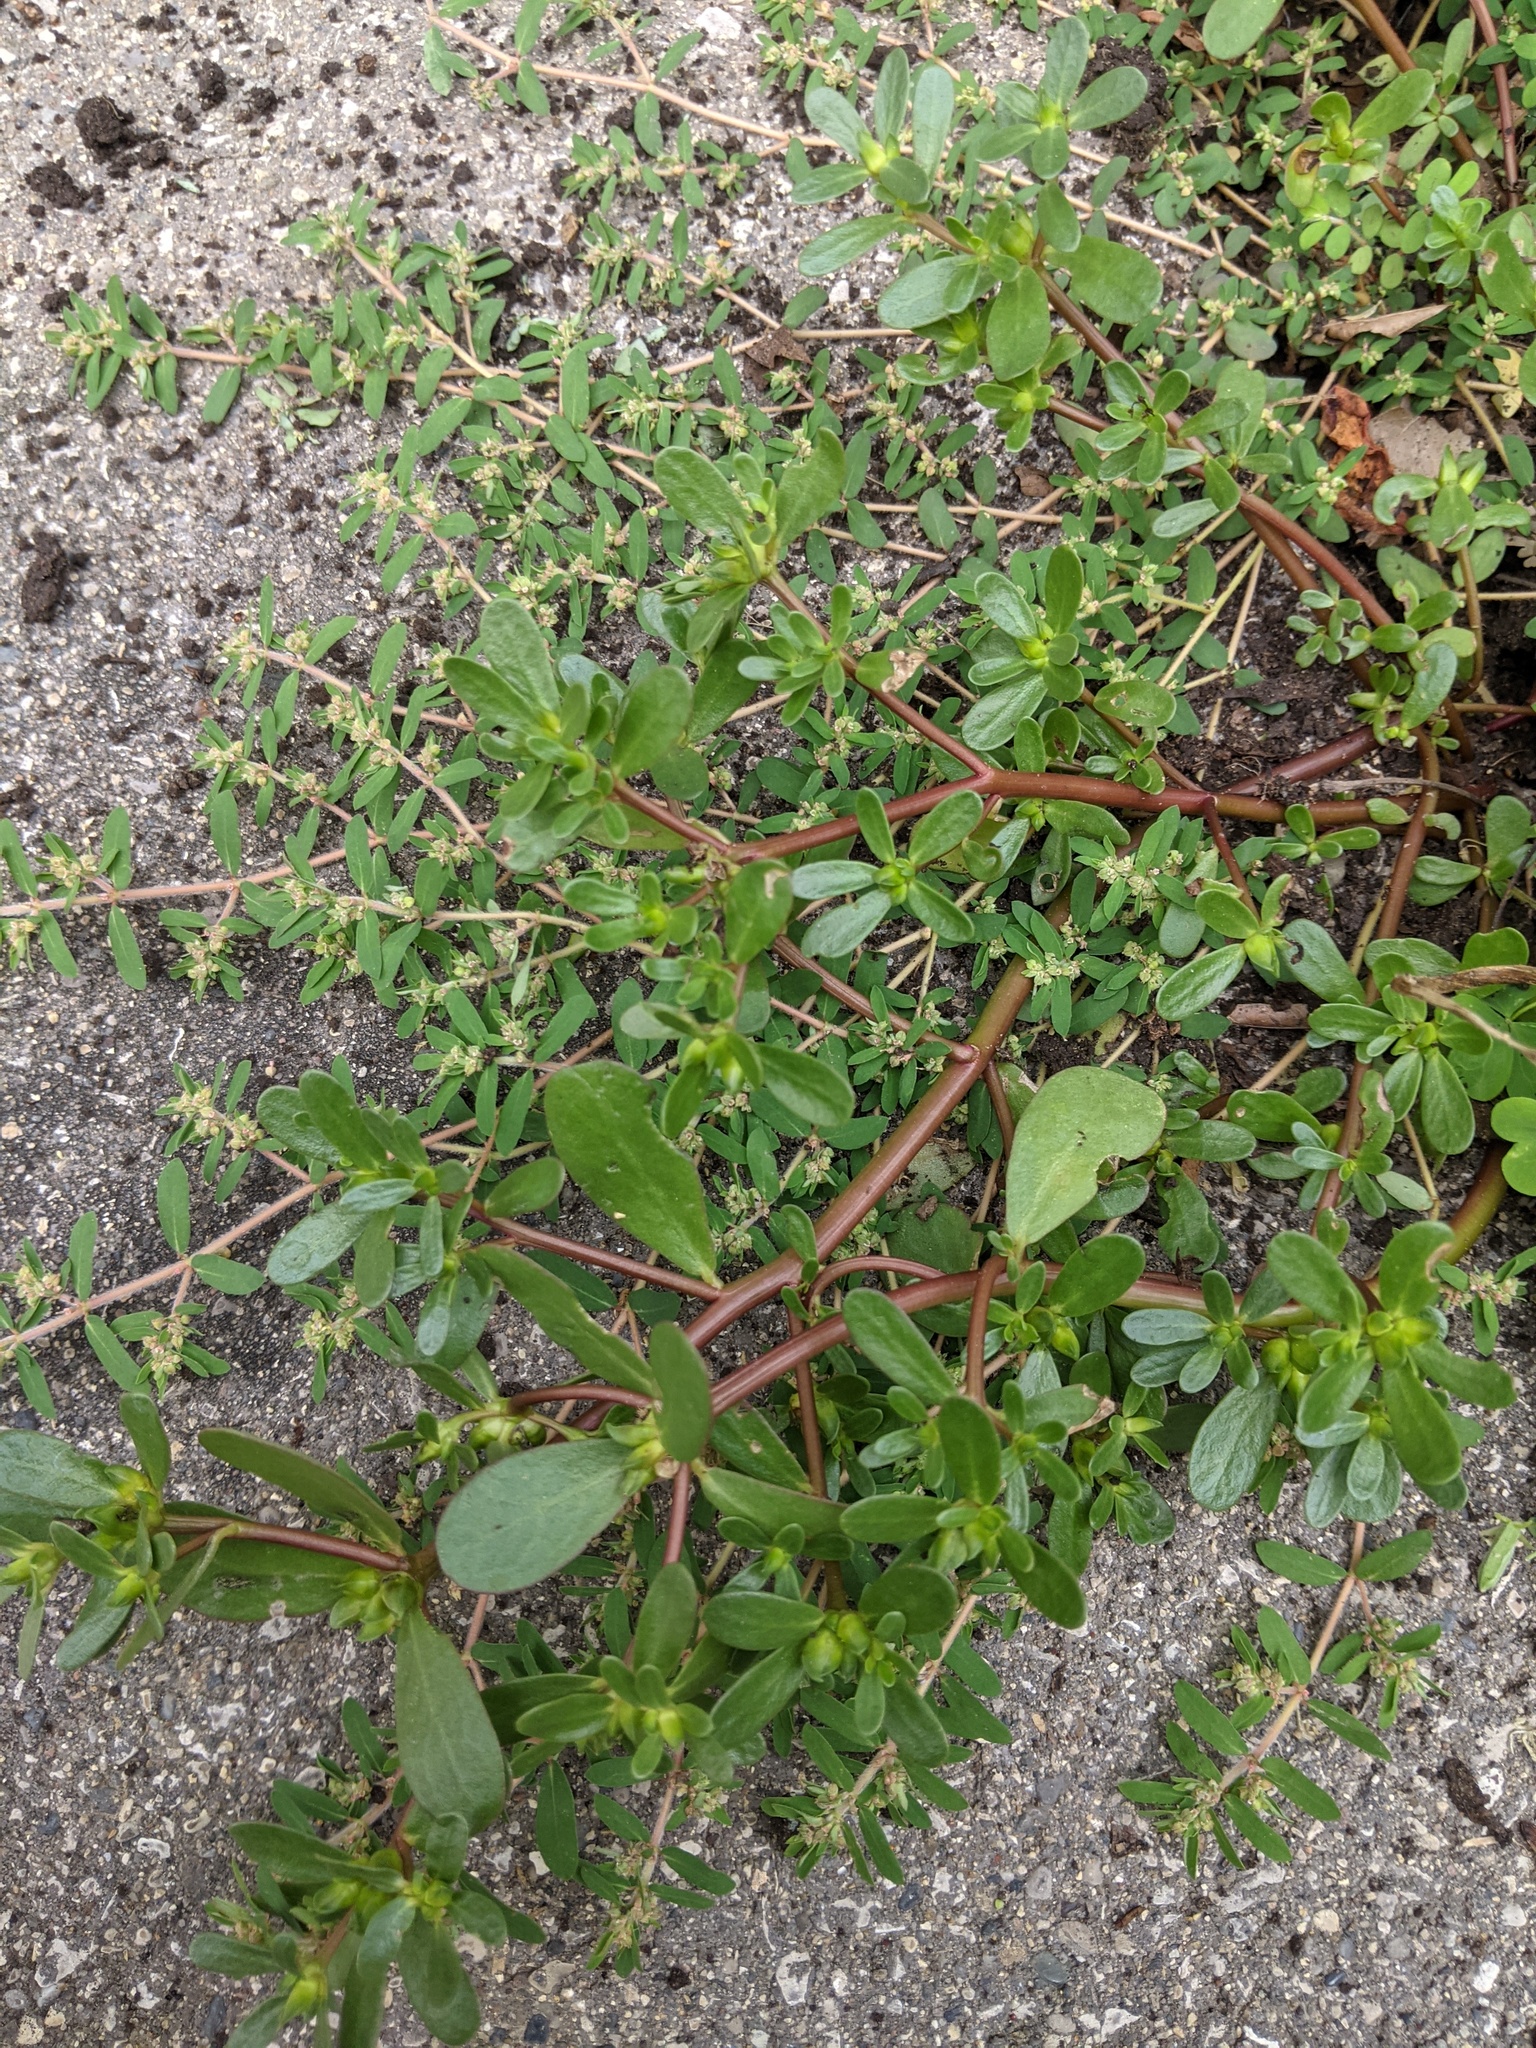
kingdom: Plantae
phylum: Tracheophyta
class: Magnoliopsida
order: Caryophyllales
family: Portulacaceae
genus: Portulaca
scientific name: Portulaca oleracea
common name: Common purslane
